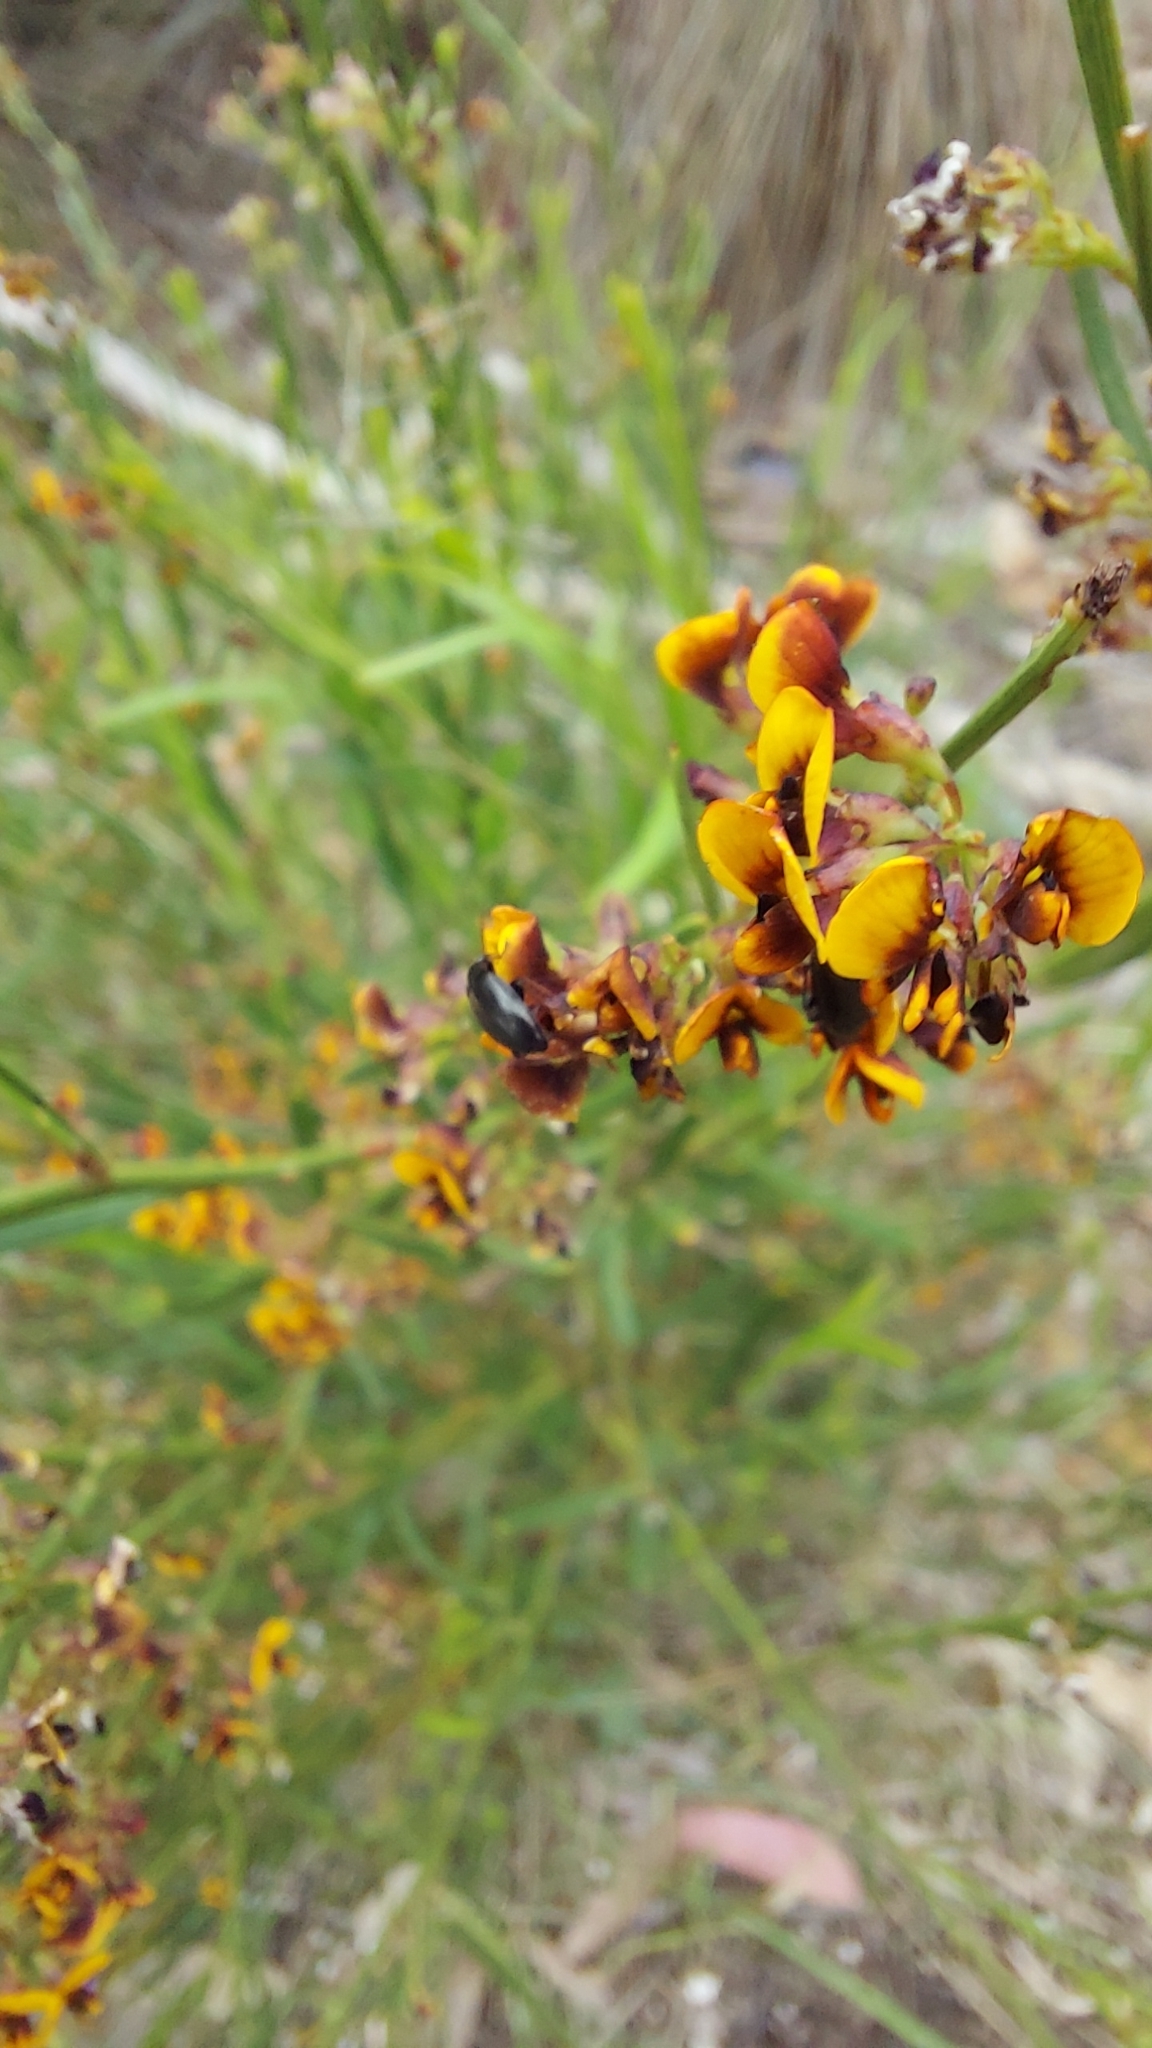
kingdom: Plantae
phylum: Tracheophyta
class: Magnoliopsida
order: Fabales
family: Fabaceae
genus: Daviesia
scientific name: Daviesia leptophylla
